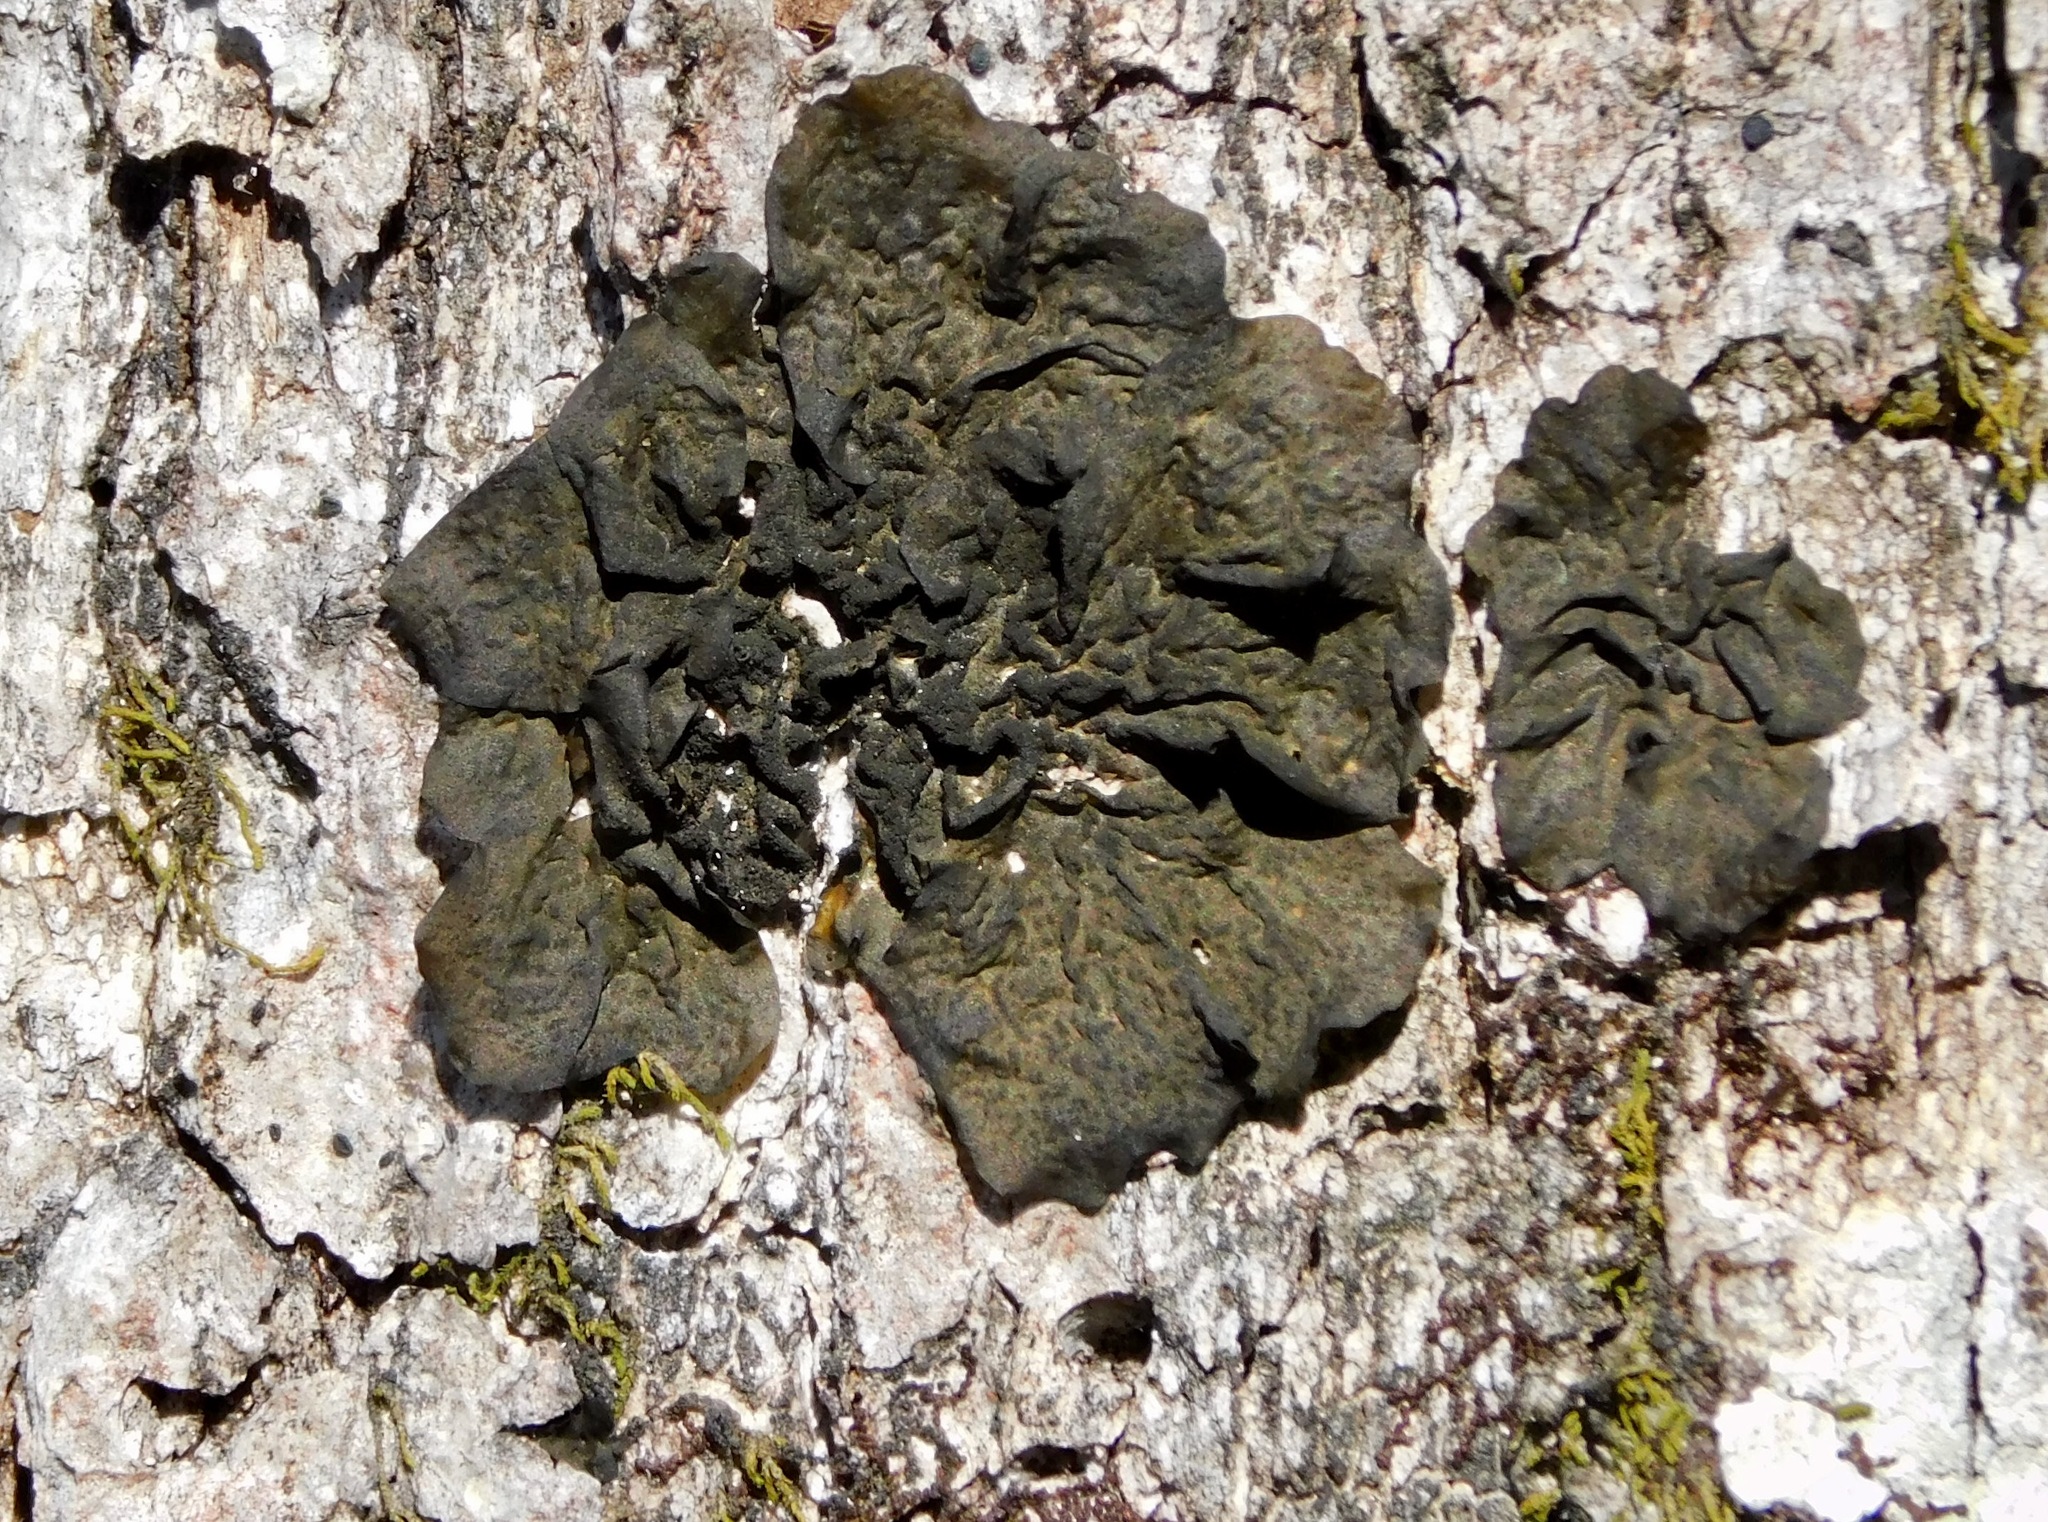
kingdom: Fungi
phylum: Ascomycota
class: Lecanoromycetes
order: Peltigerales
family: Collemataceae
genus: Collema
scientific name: Collema furfuraceum
